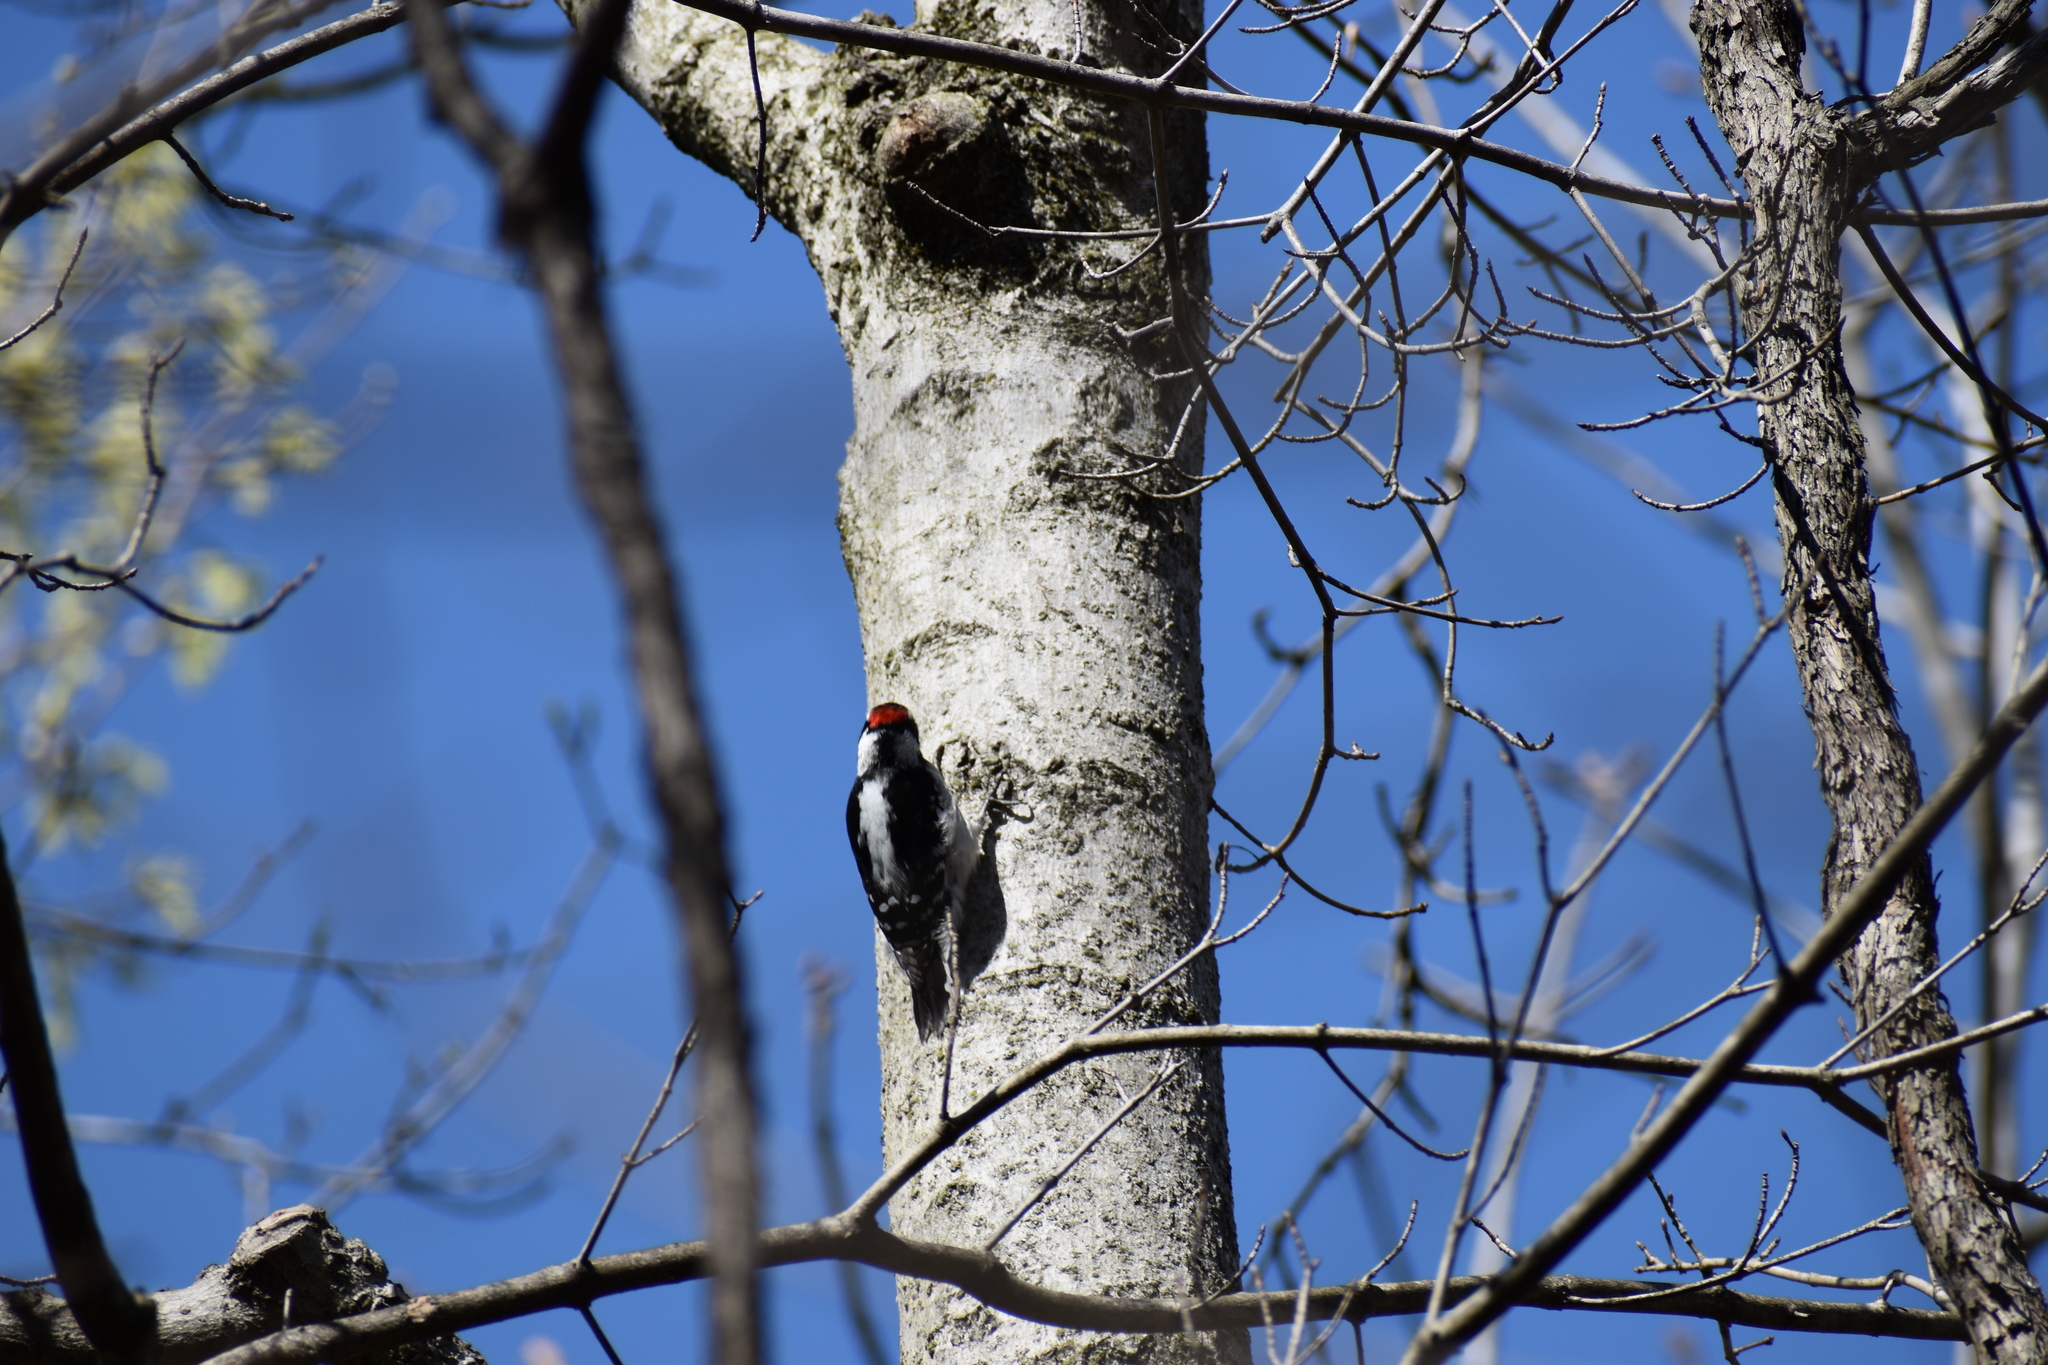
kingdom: Animalia
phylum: Chordata
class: Aves
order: Piciformes
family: Picidae
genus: Dryobates
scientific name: Dryobates pubescens
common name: Downy woodpecker
